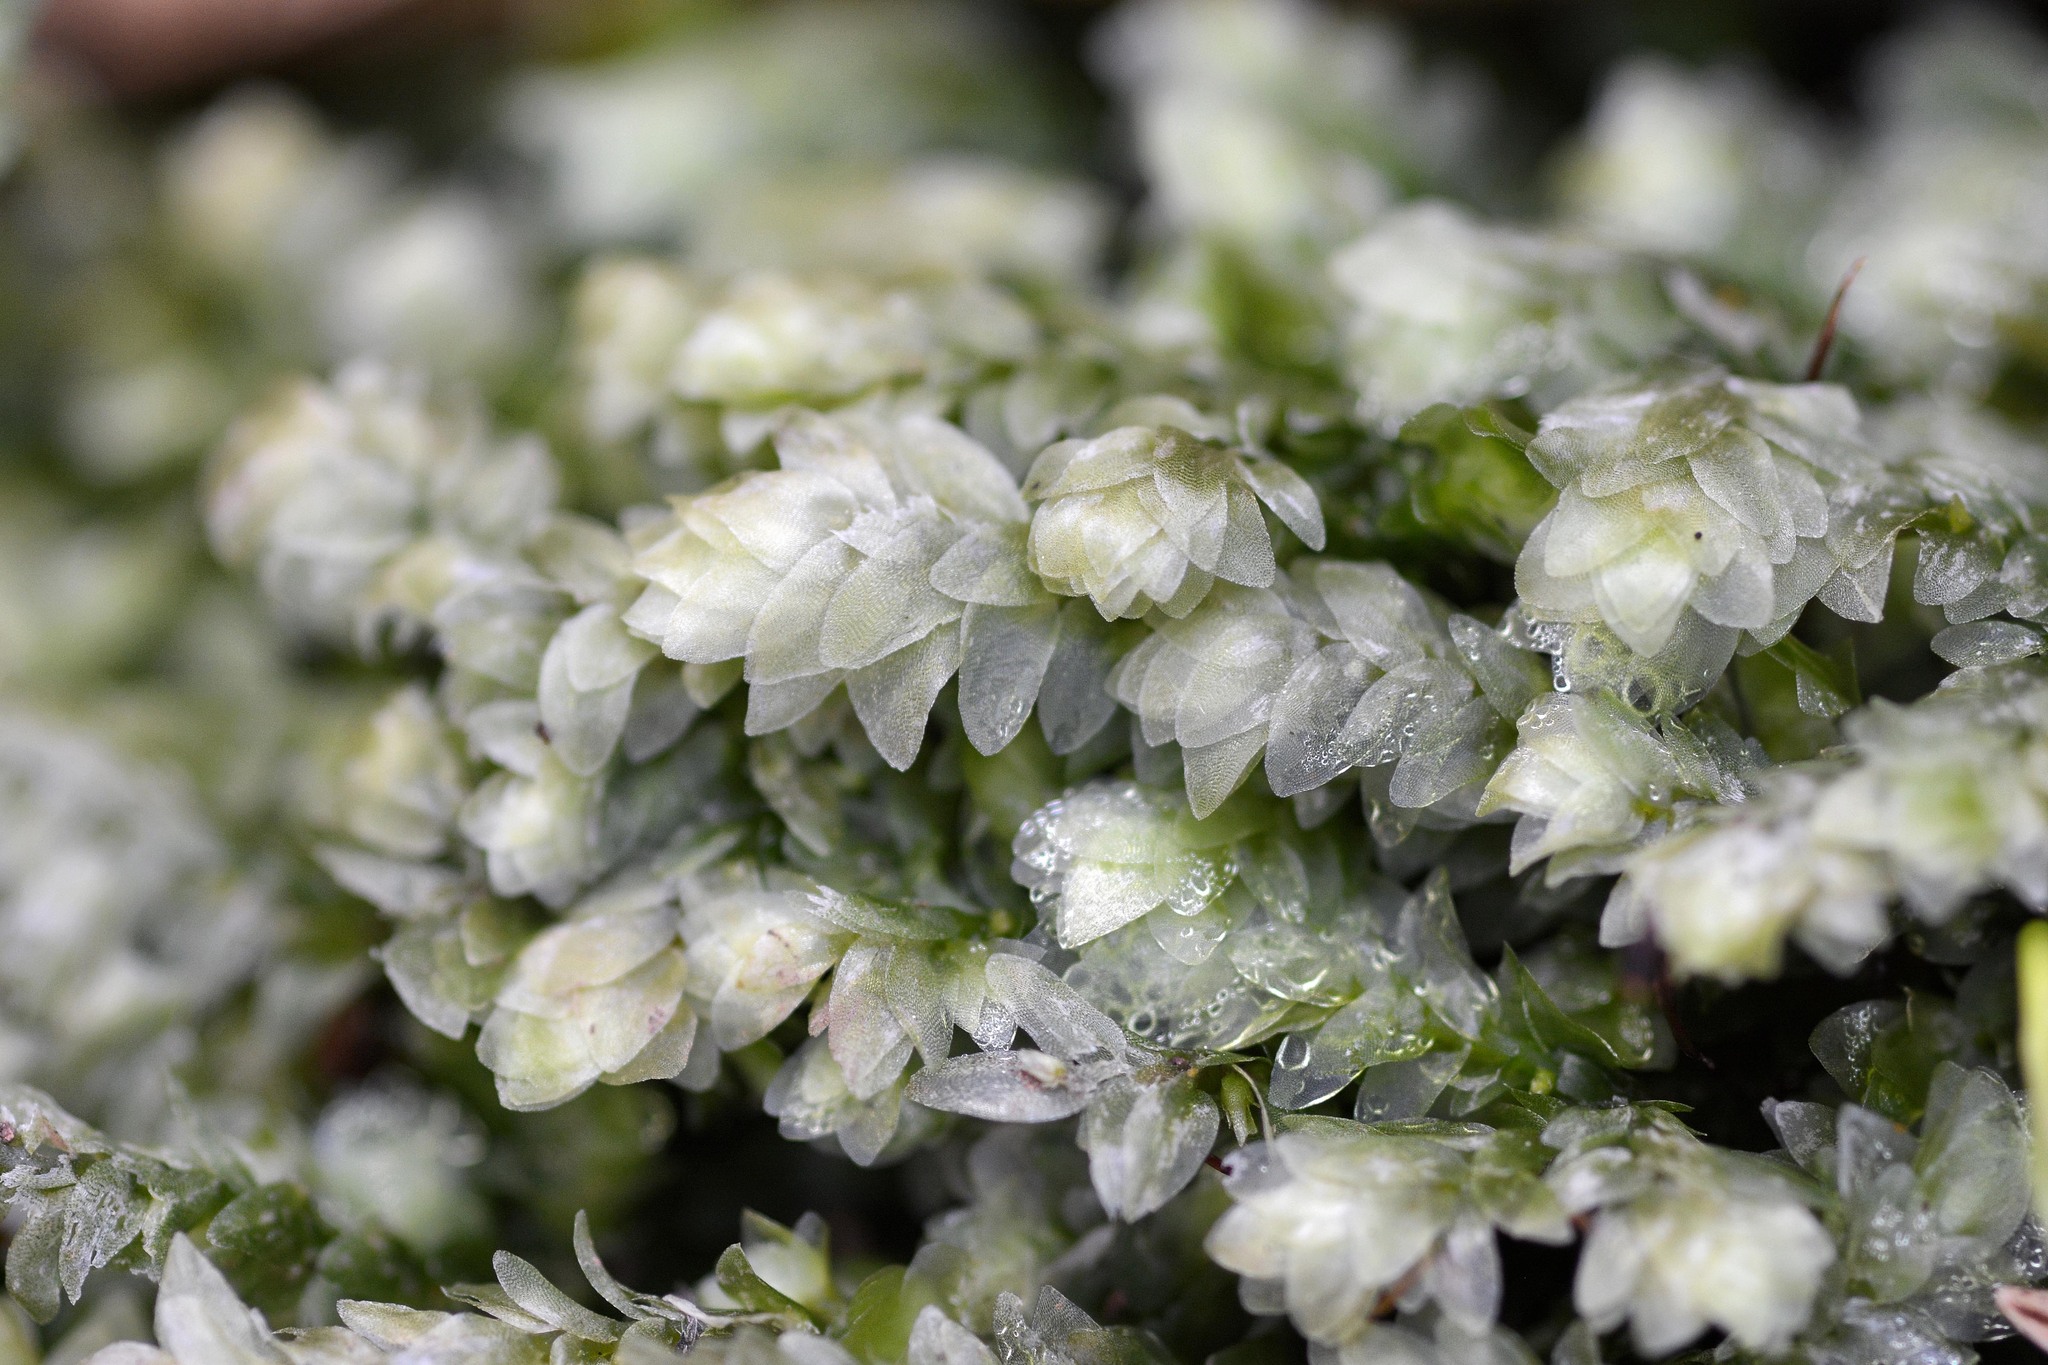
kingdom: Plantae
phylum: Bryophyta
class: Bryopsida
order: Hookeriales
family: Hookeriaceae
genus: Hookeria
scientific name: Hookeria lucens
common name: Shining hookeria
